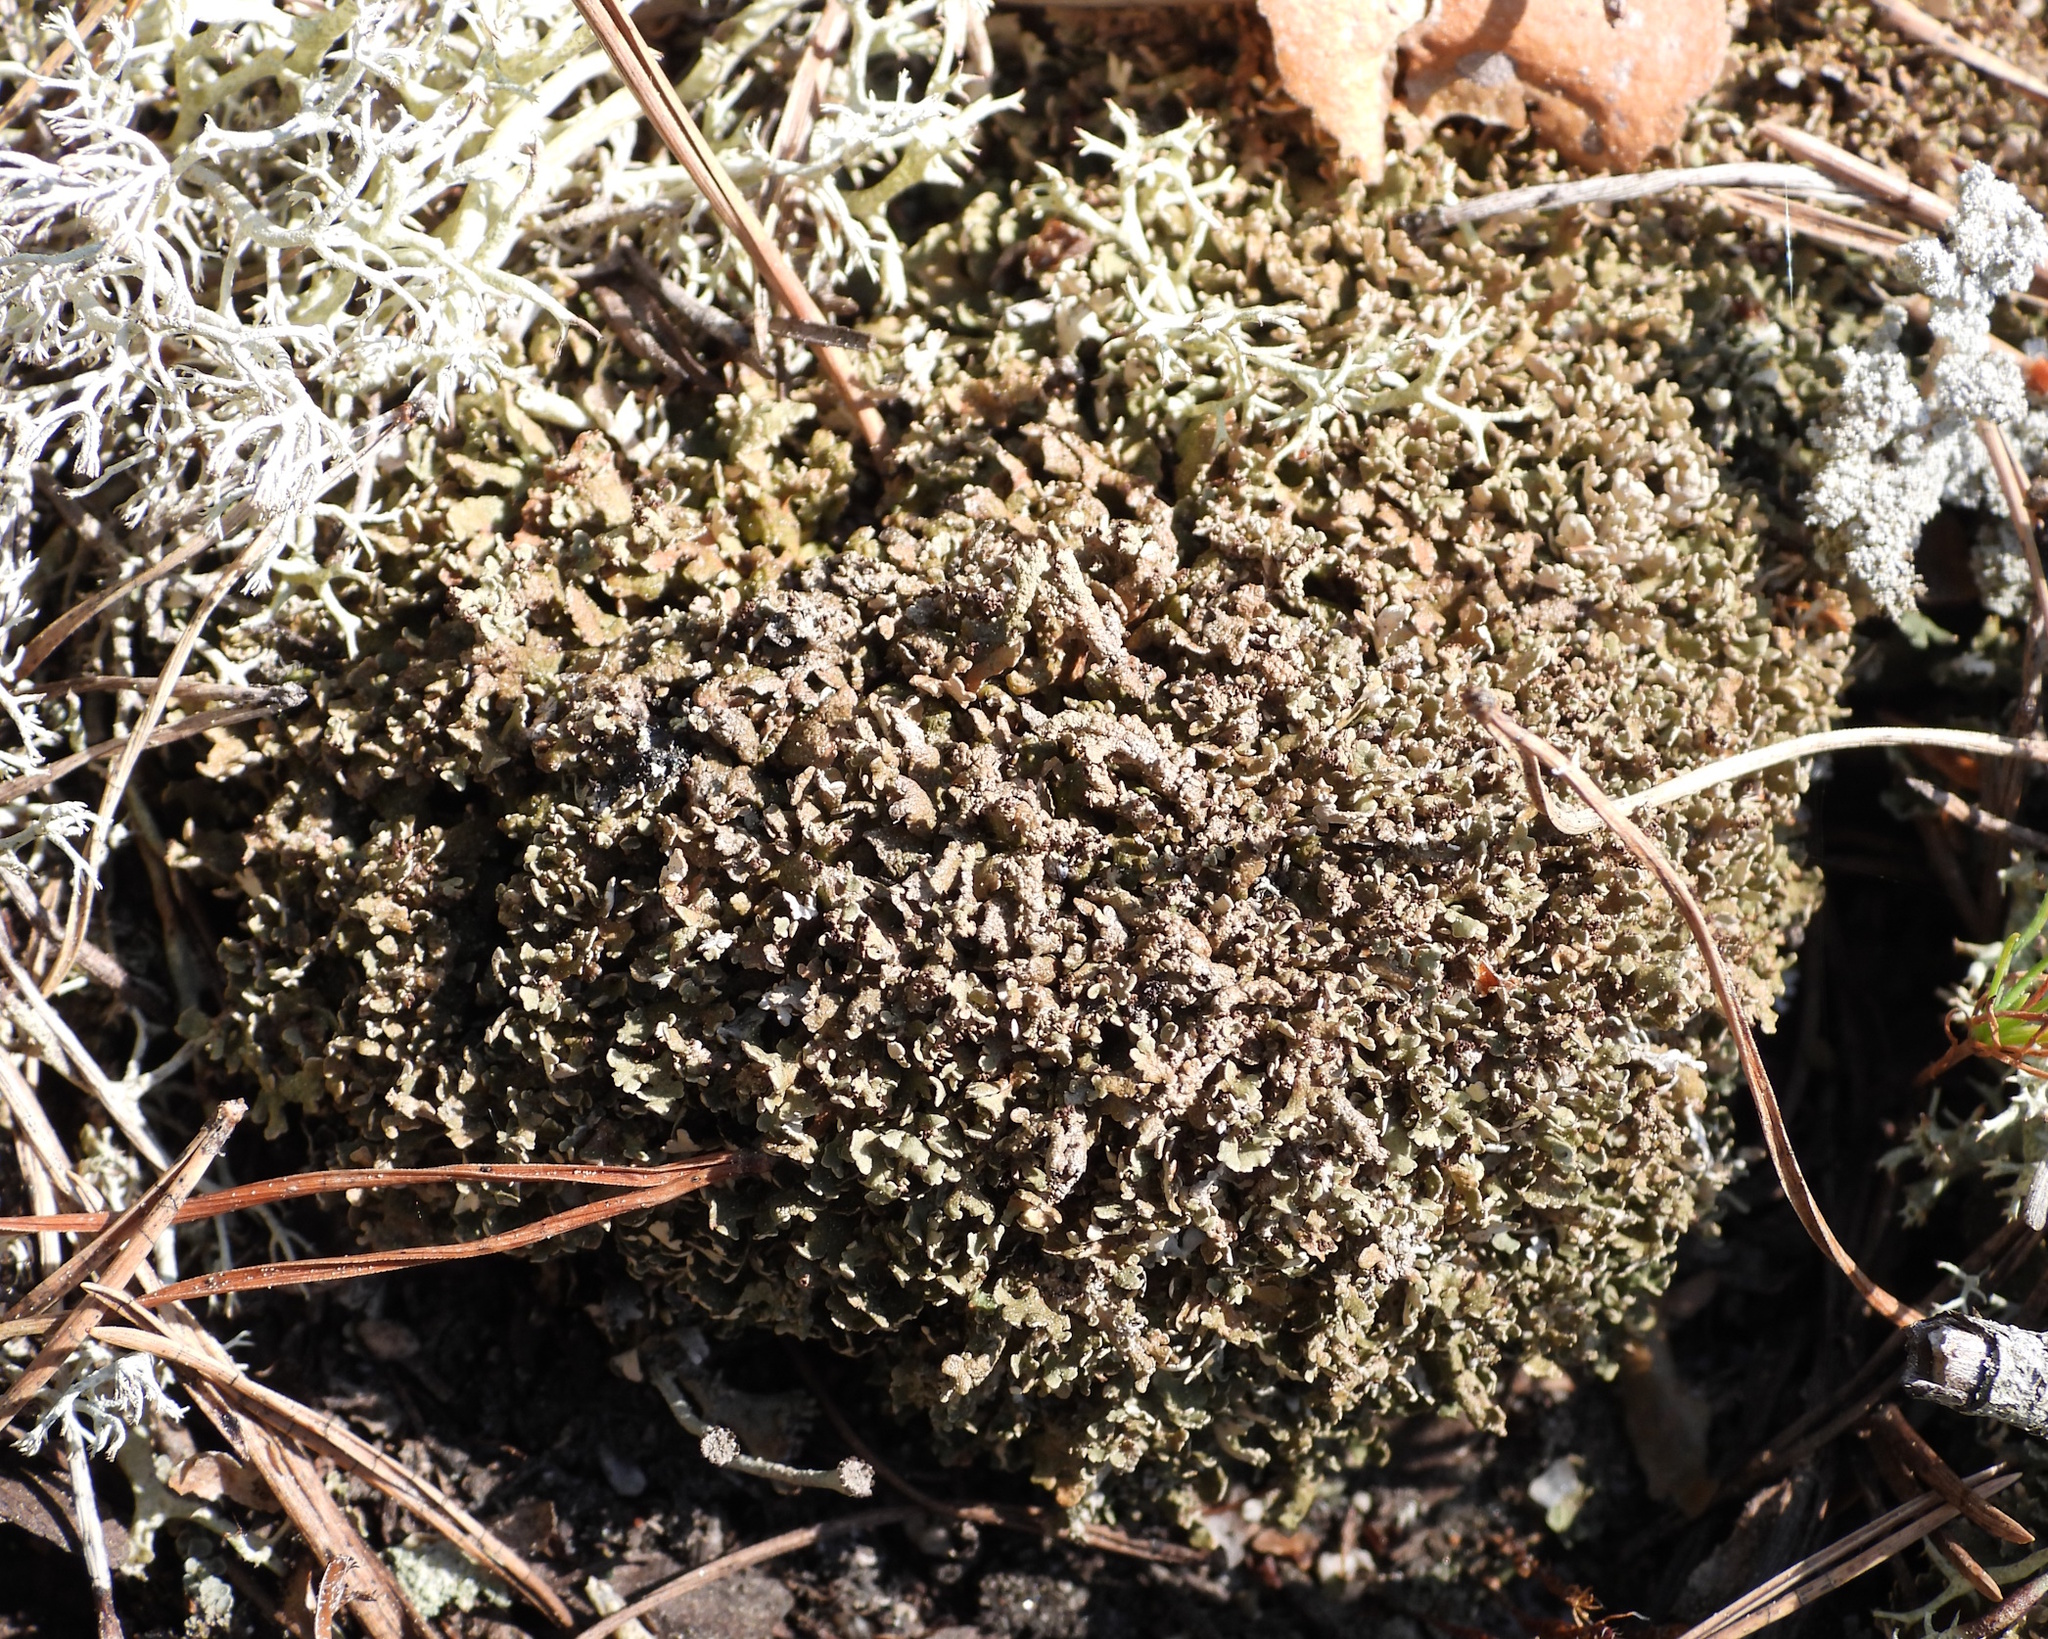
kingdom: Fungi
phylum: Ascomycota
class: Lecanoromycetes
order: Lecanorales
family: Cladoniaceae
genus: Cladonia
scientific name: Cladonia strepsilis
